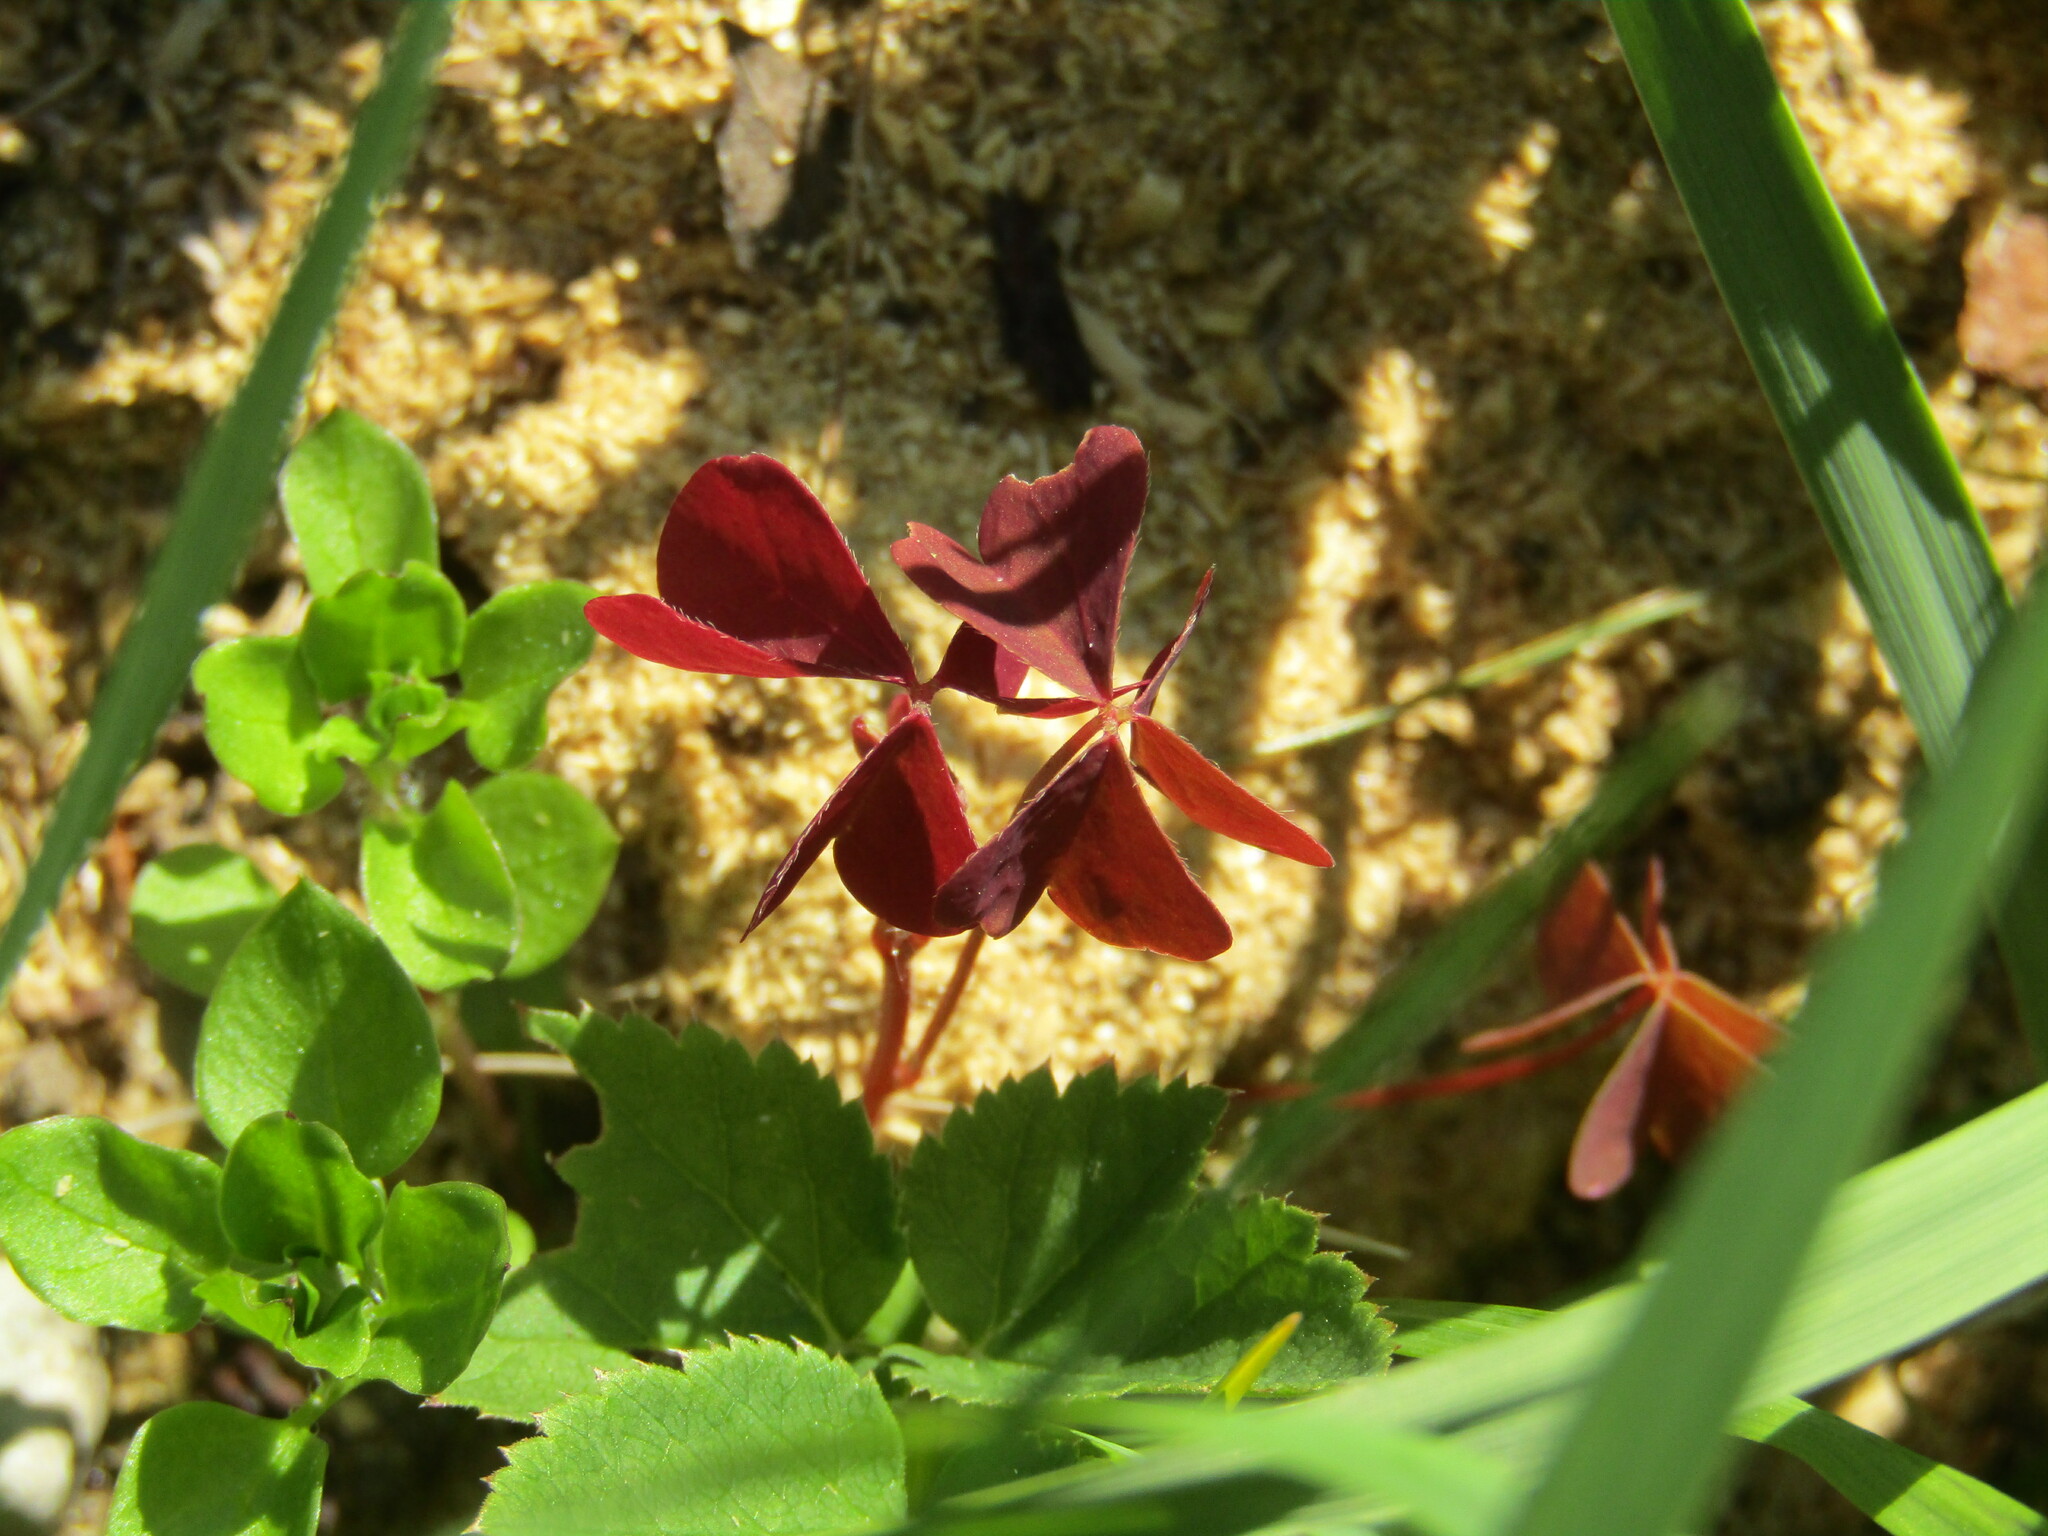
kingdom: Plantae
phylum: Tracheophyta
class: Magnoliopsida
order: Oxalidales
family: Oxalidaceae
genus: Oxalis
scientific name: Oxalis stricta
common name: Upright yellow-sorrel
